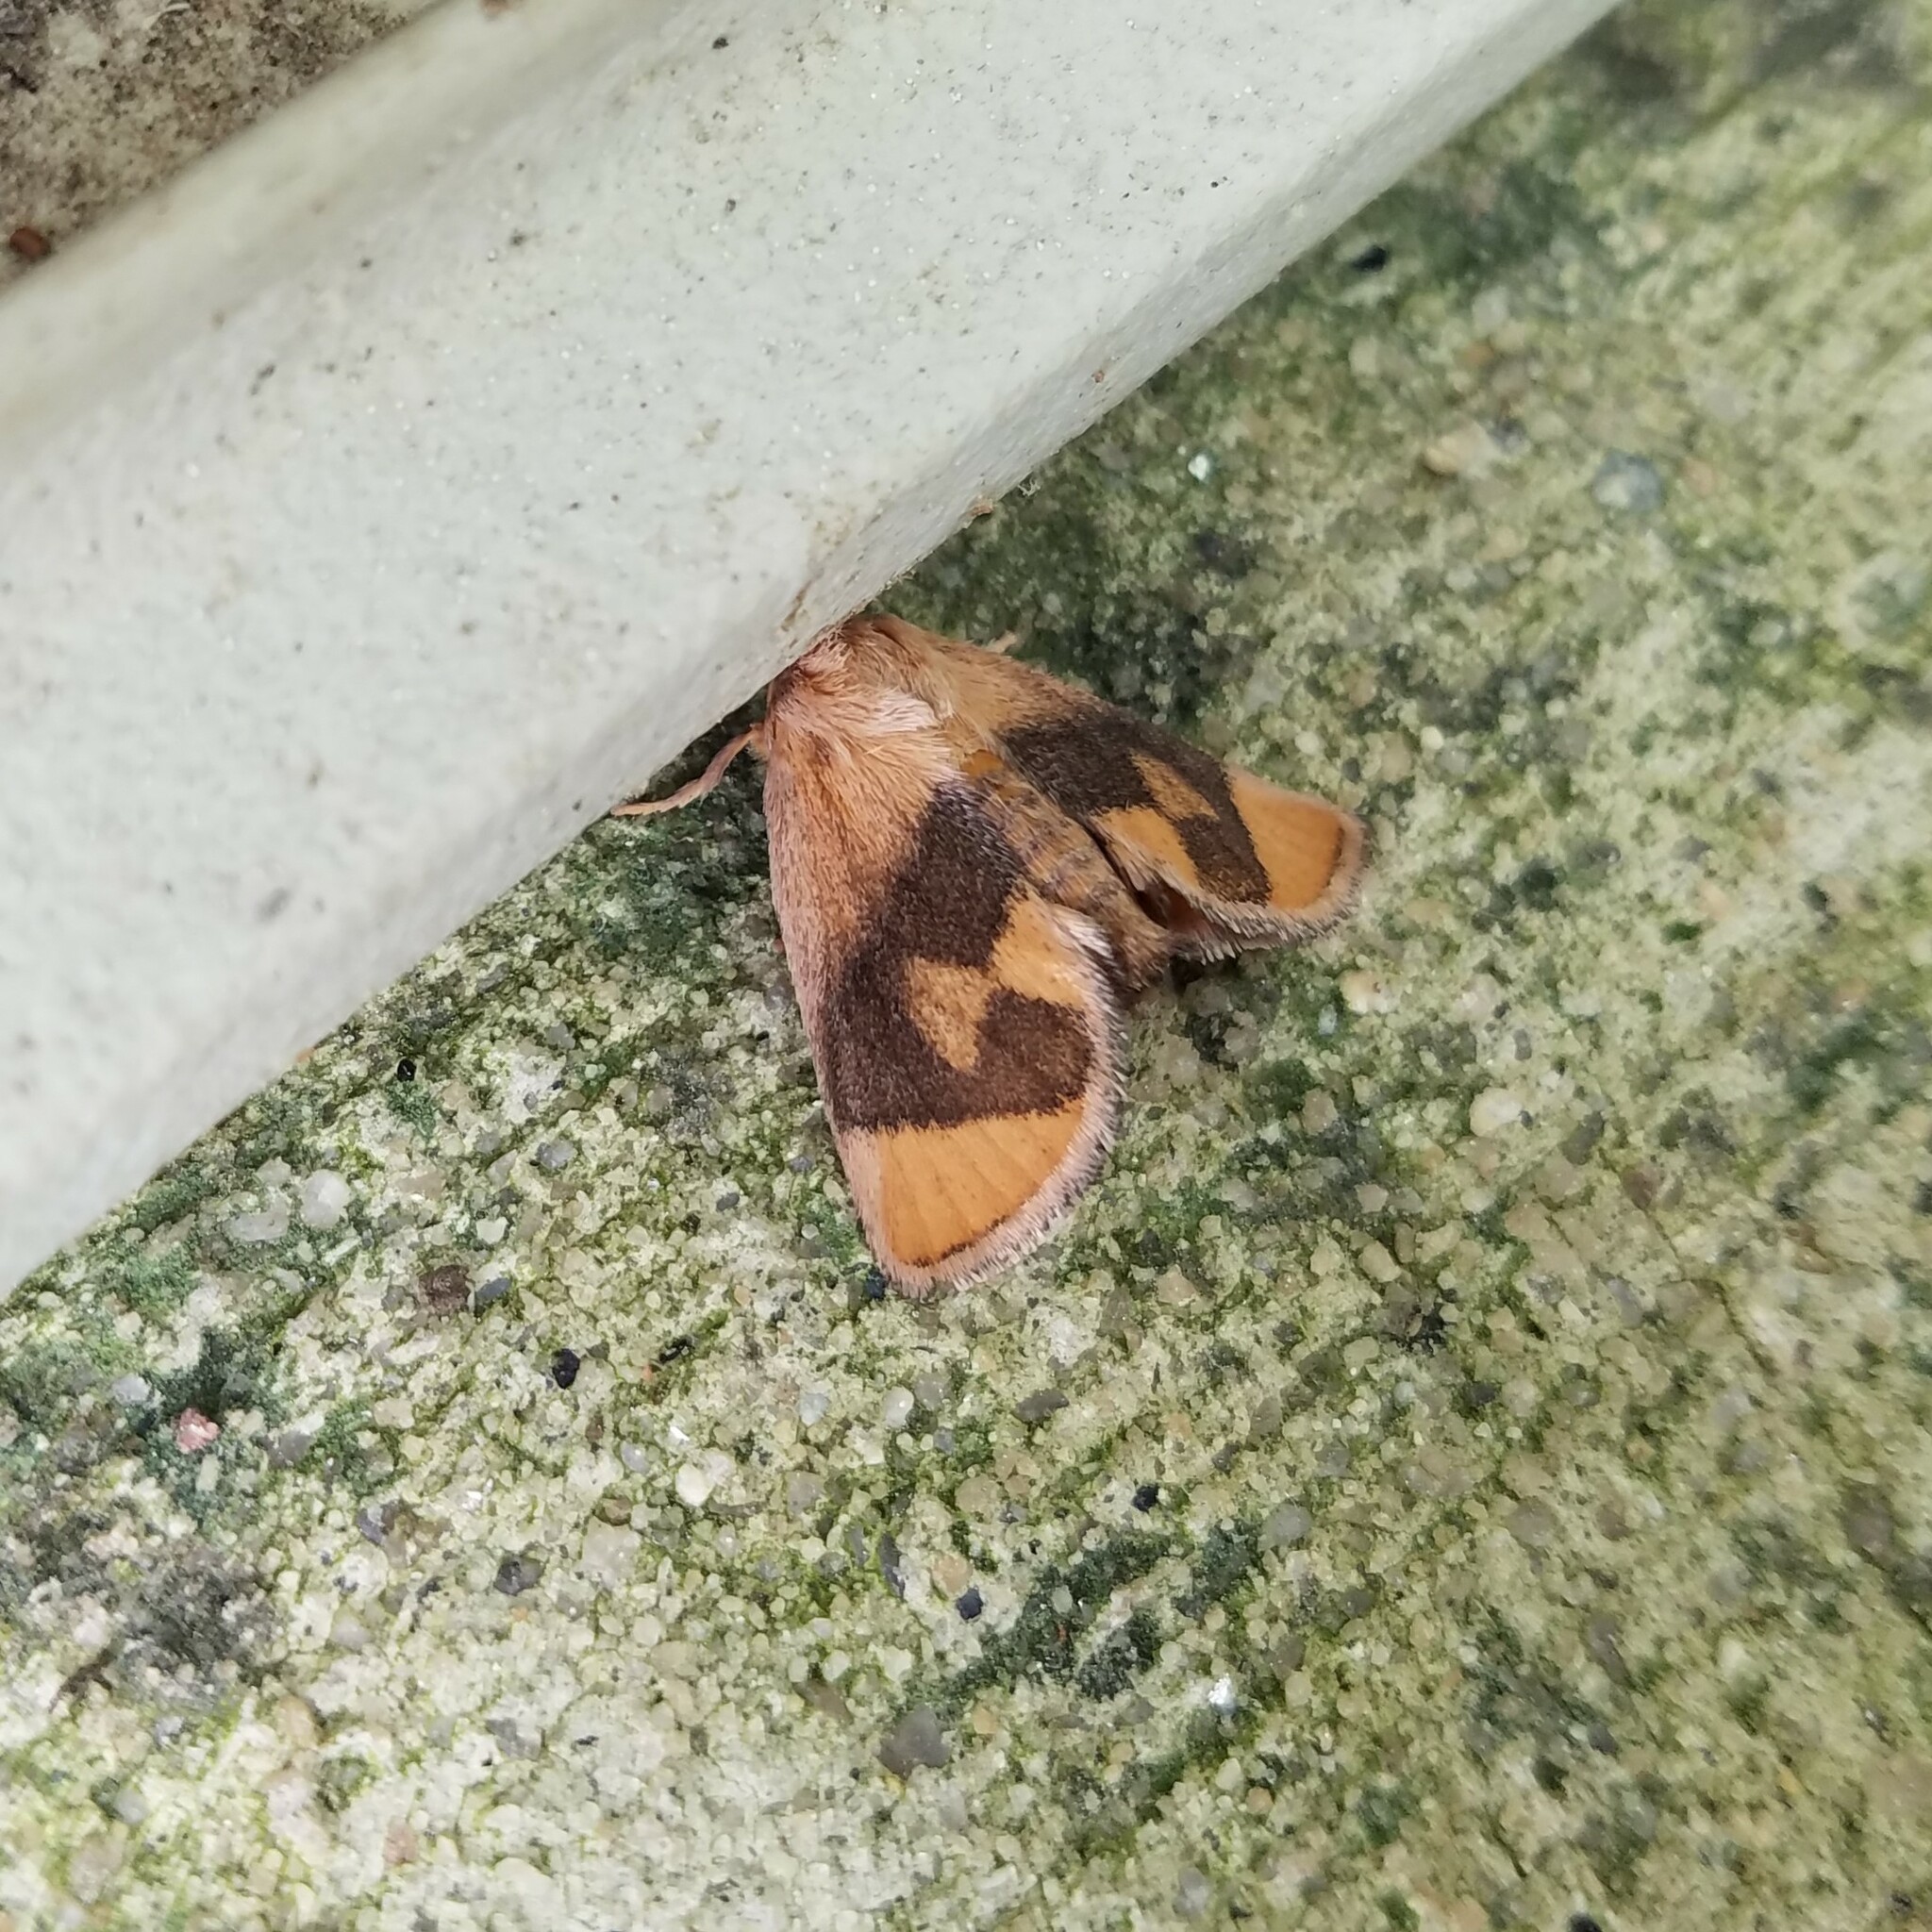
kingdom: Animalia
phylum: Arthropoda
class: Insecta
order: Lepidoptera
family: Limacodidae
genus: Apoda
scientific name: Apoda y-inversa
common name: Yellow-collared slug moth
